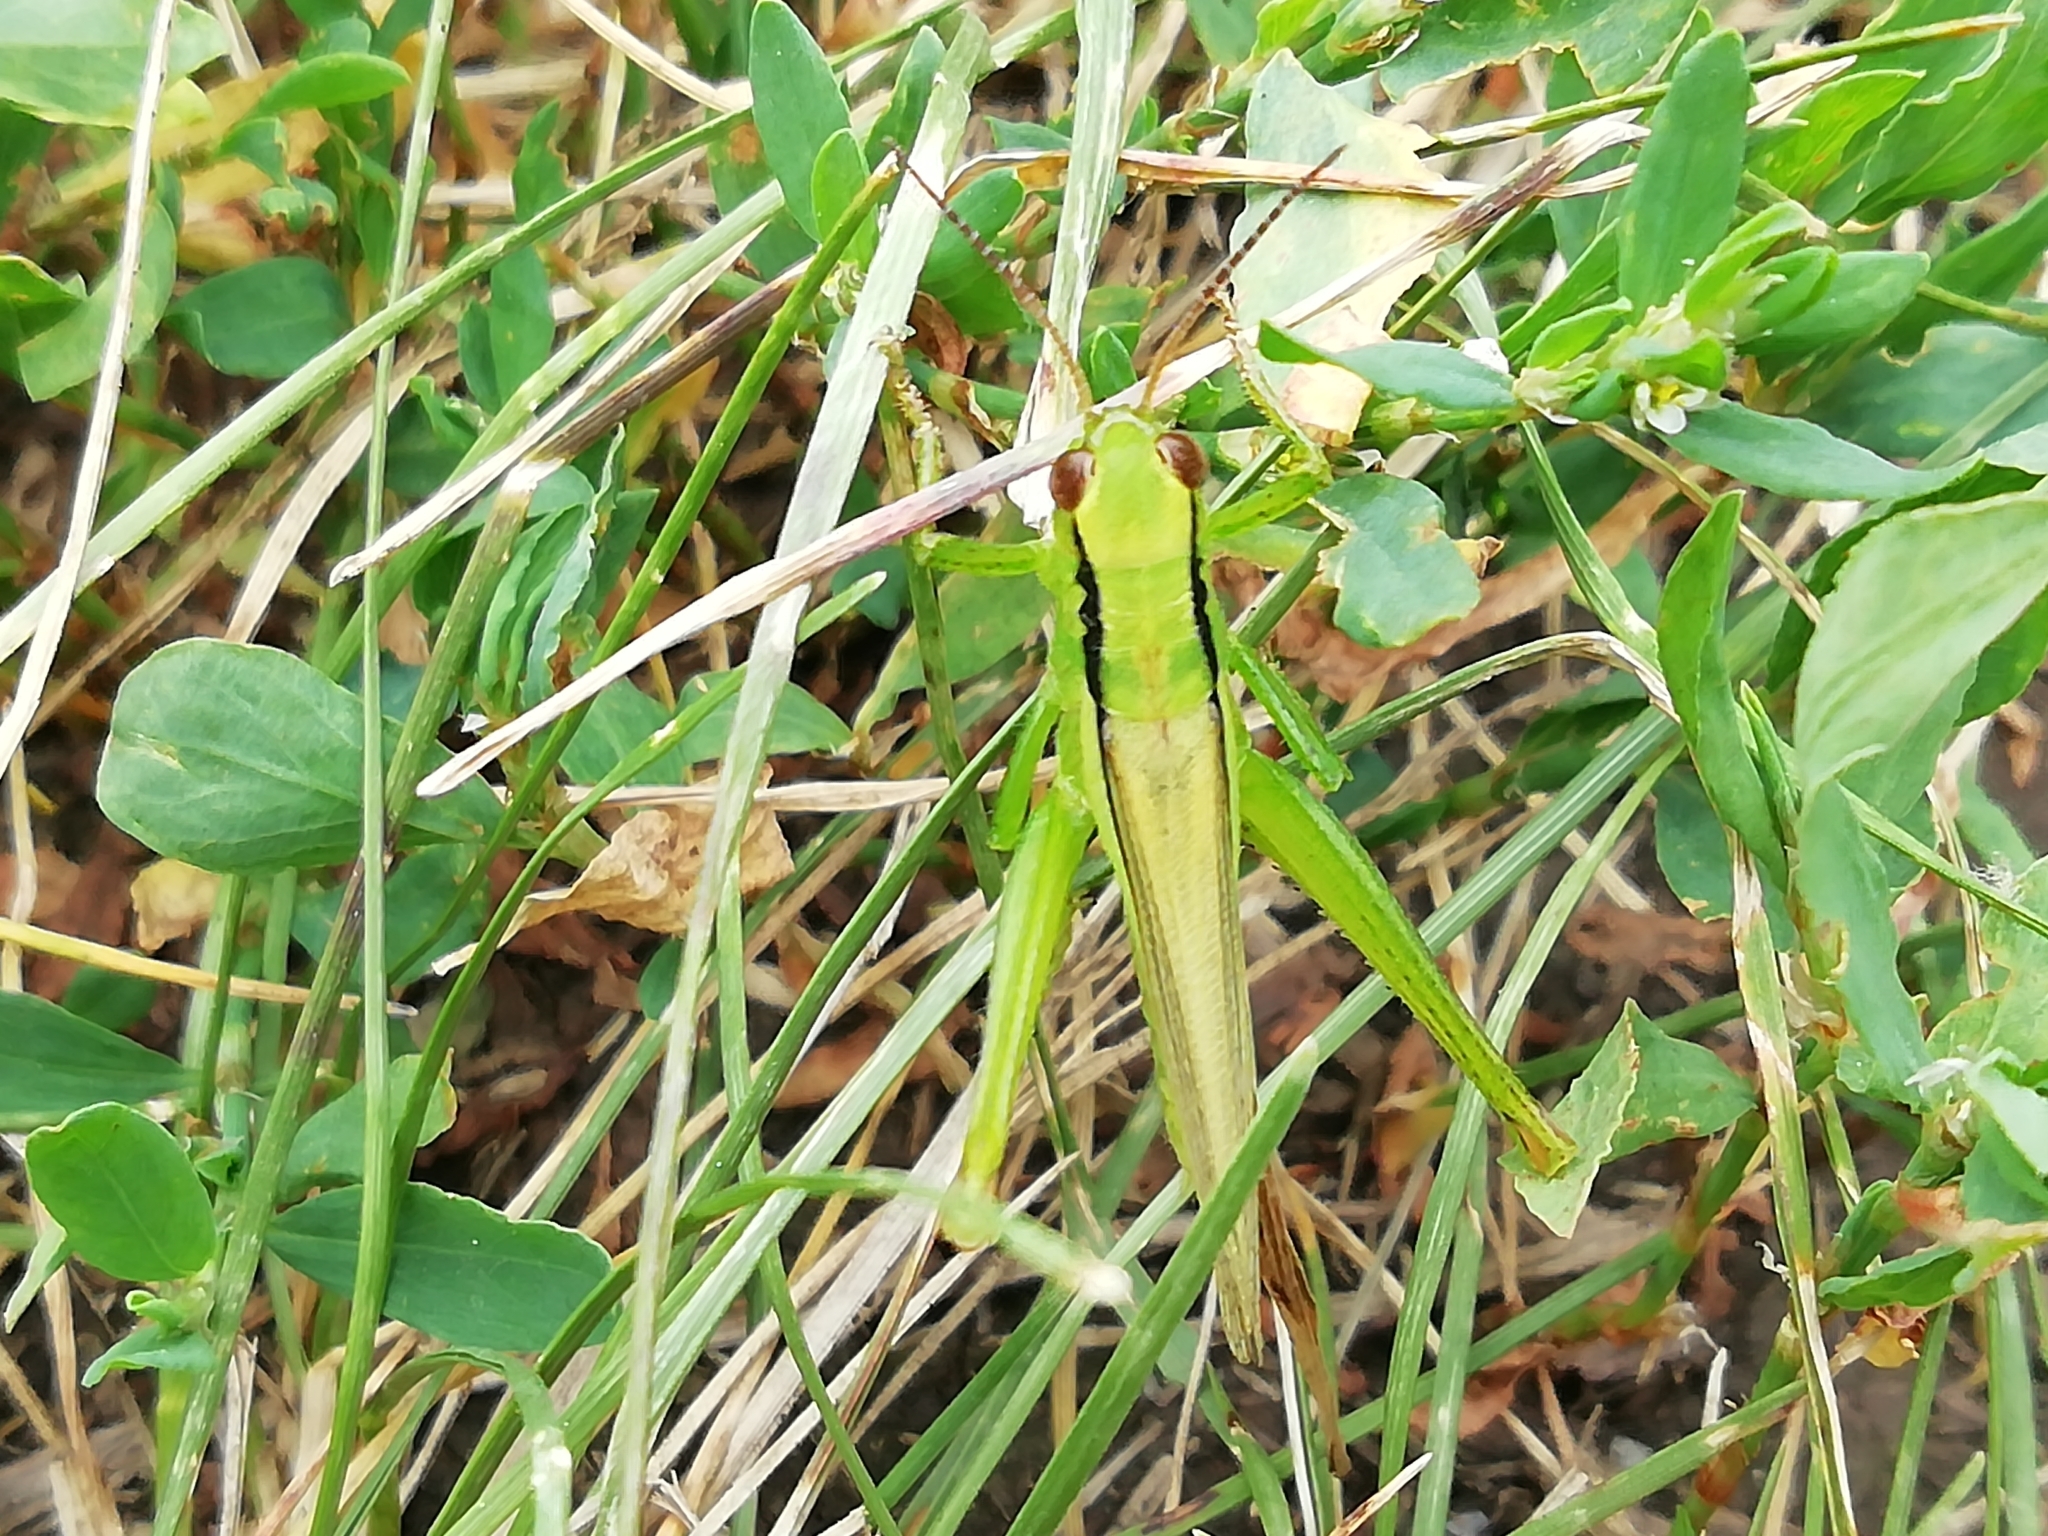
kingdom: Animalia
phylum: Arthropoda
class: Insecta
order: Orthoptera
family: Acrididae
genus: Mecostethus
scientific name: Mecostethus parapleurus
